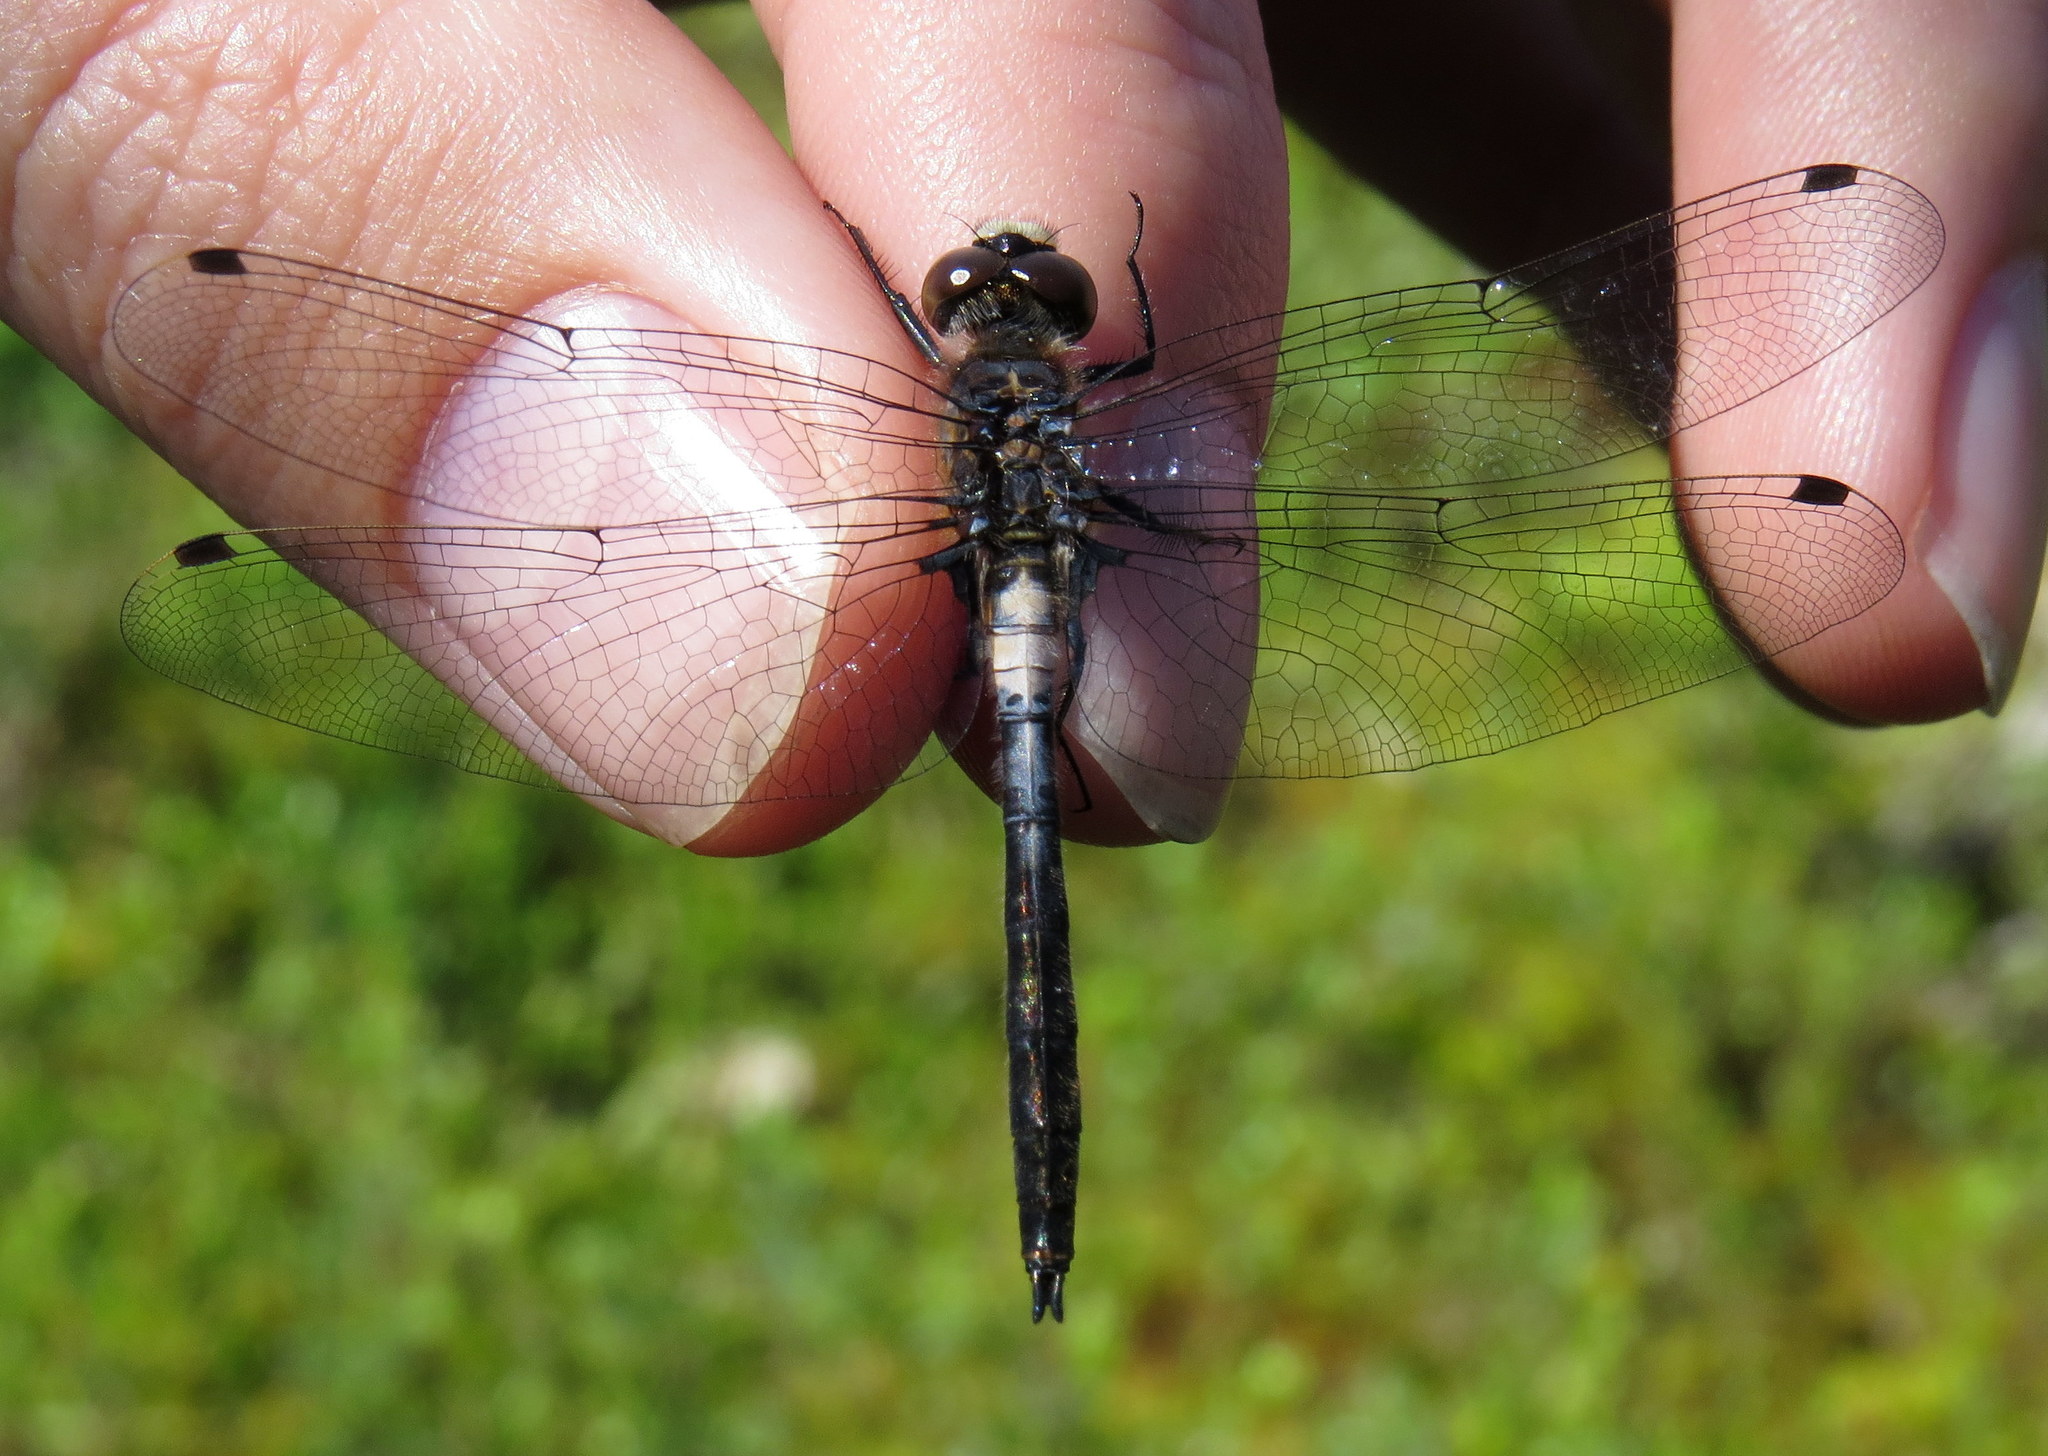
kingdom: Animalia
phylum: Arthropoda
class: Insecta
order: Odonata
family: Libellulidae
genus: Leucorrhinia
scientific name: Leucorrhinia proxima
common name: Belted whiteface
